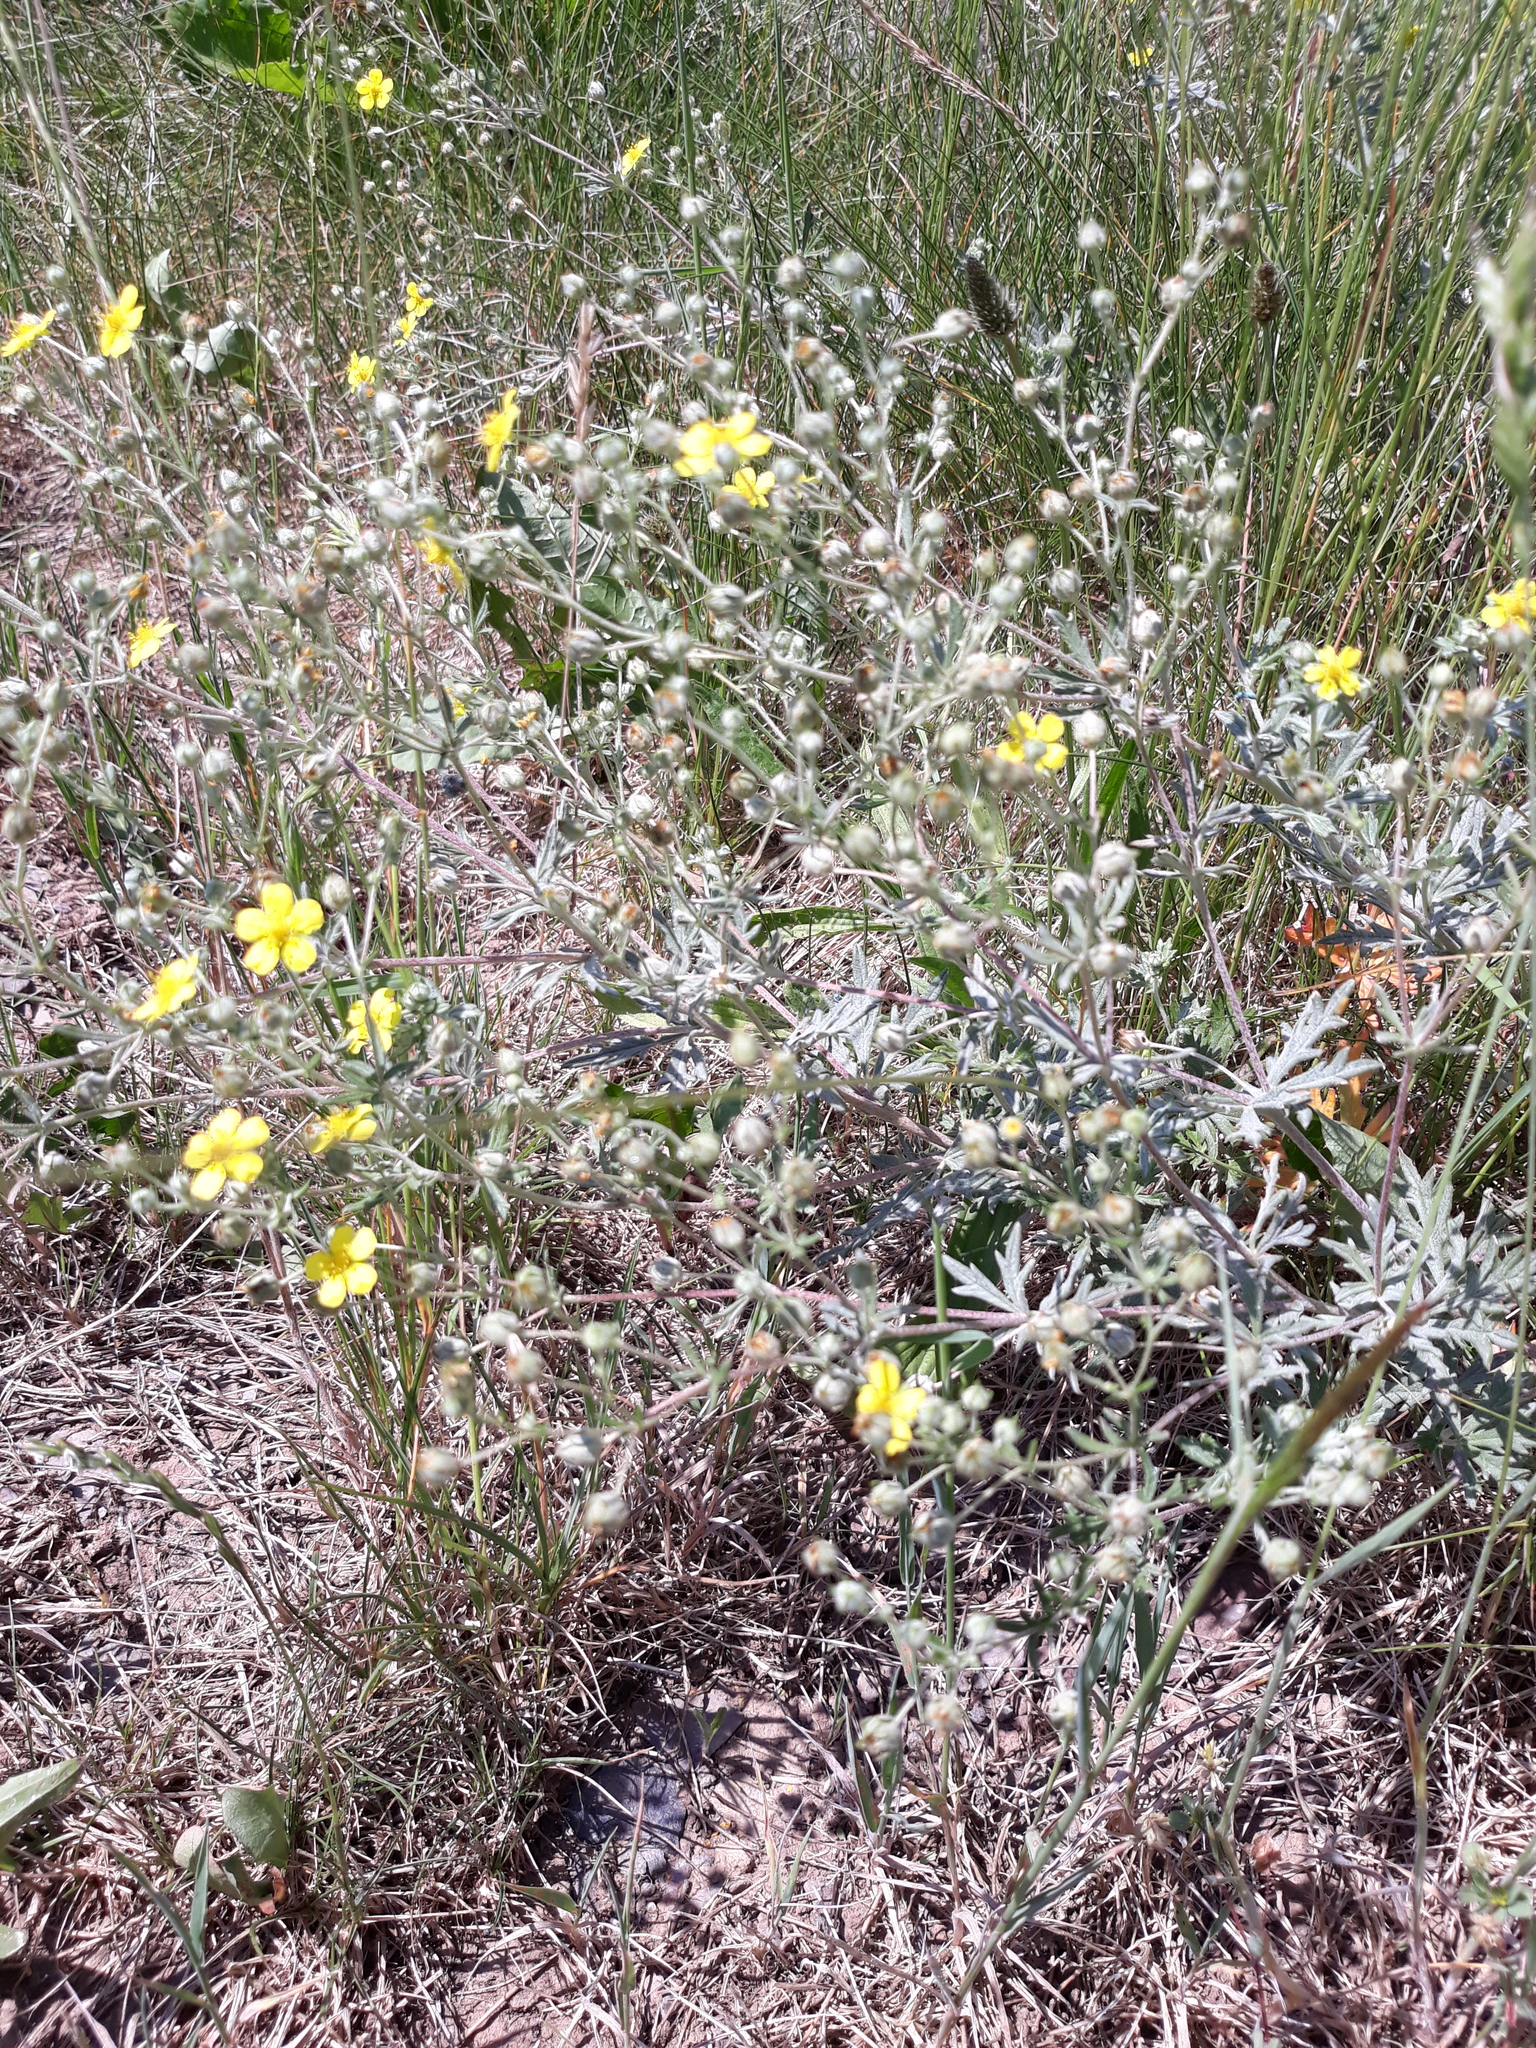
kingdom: Plantae
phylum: Tracheophyta
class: Magnoliopsida
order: Rosales
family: Rosaceae
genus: Potentilla
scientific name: Potentilla argentea
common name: Hoary cinquefoil
